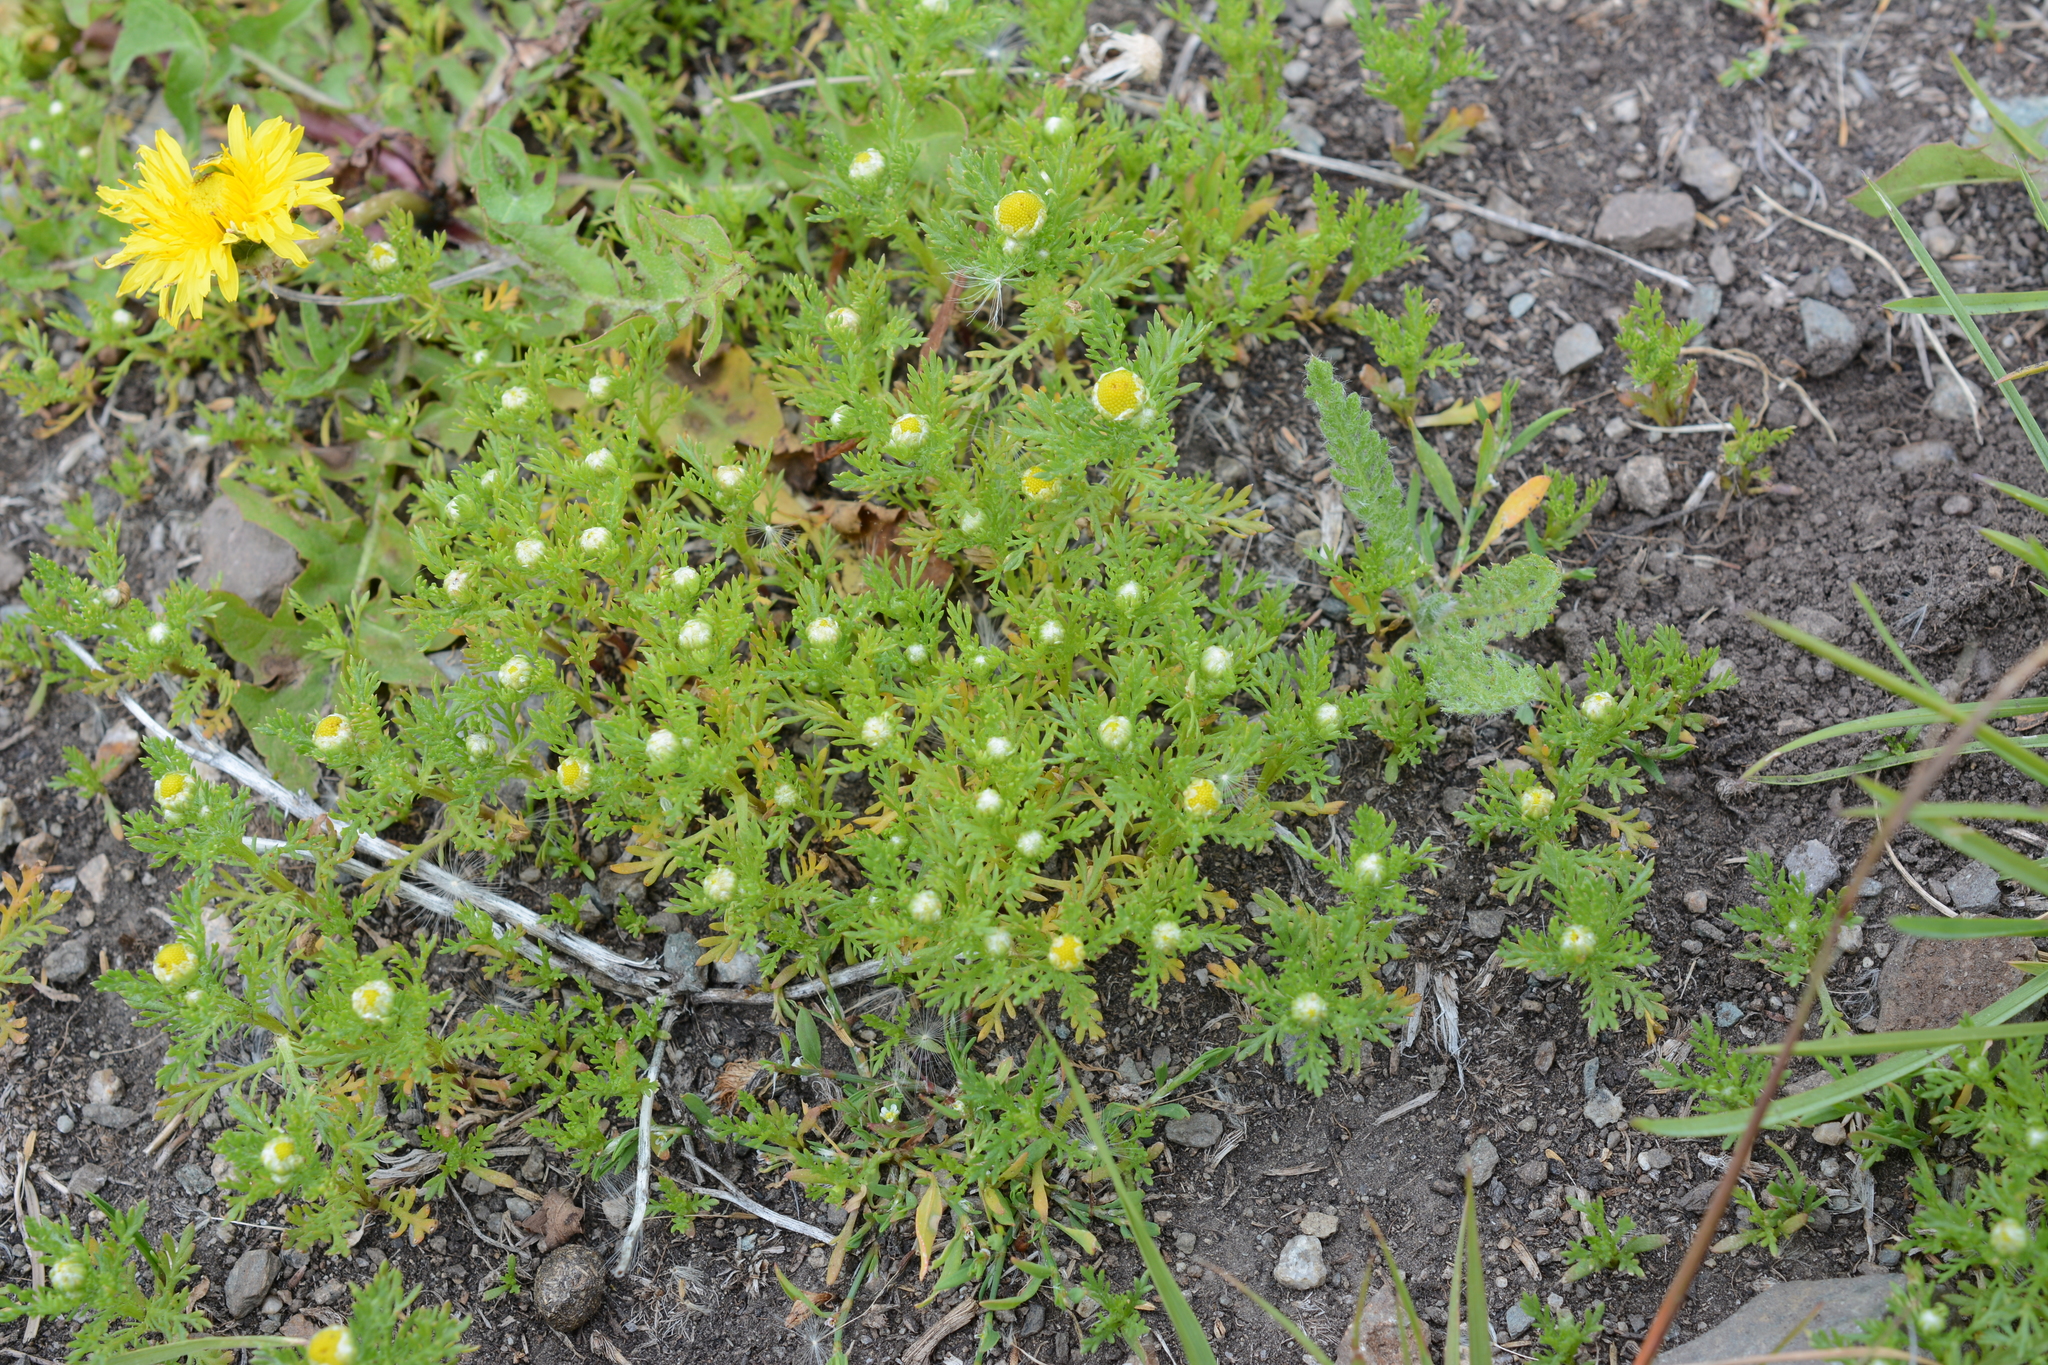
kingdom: Plantae
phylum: Tracheophyta
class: Magnoliopsida
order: Asterales
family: Asteraceae
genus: Matricaria
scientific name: Matricaria discoidea
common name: Disc mayweed
